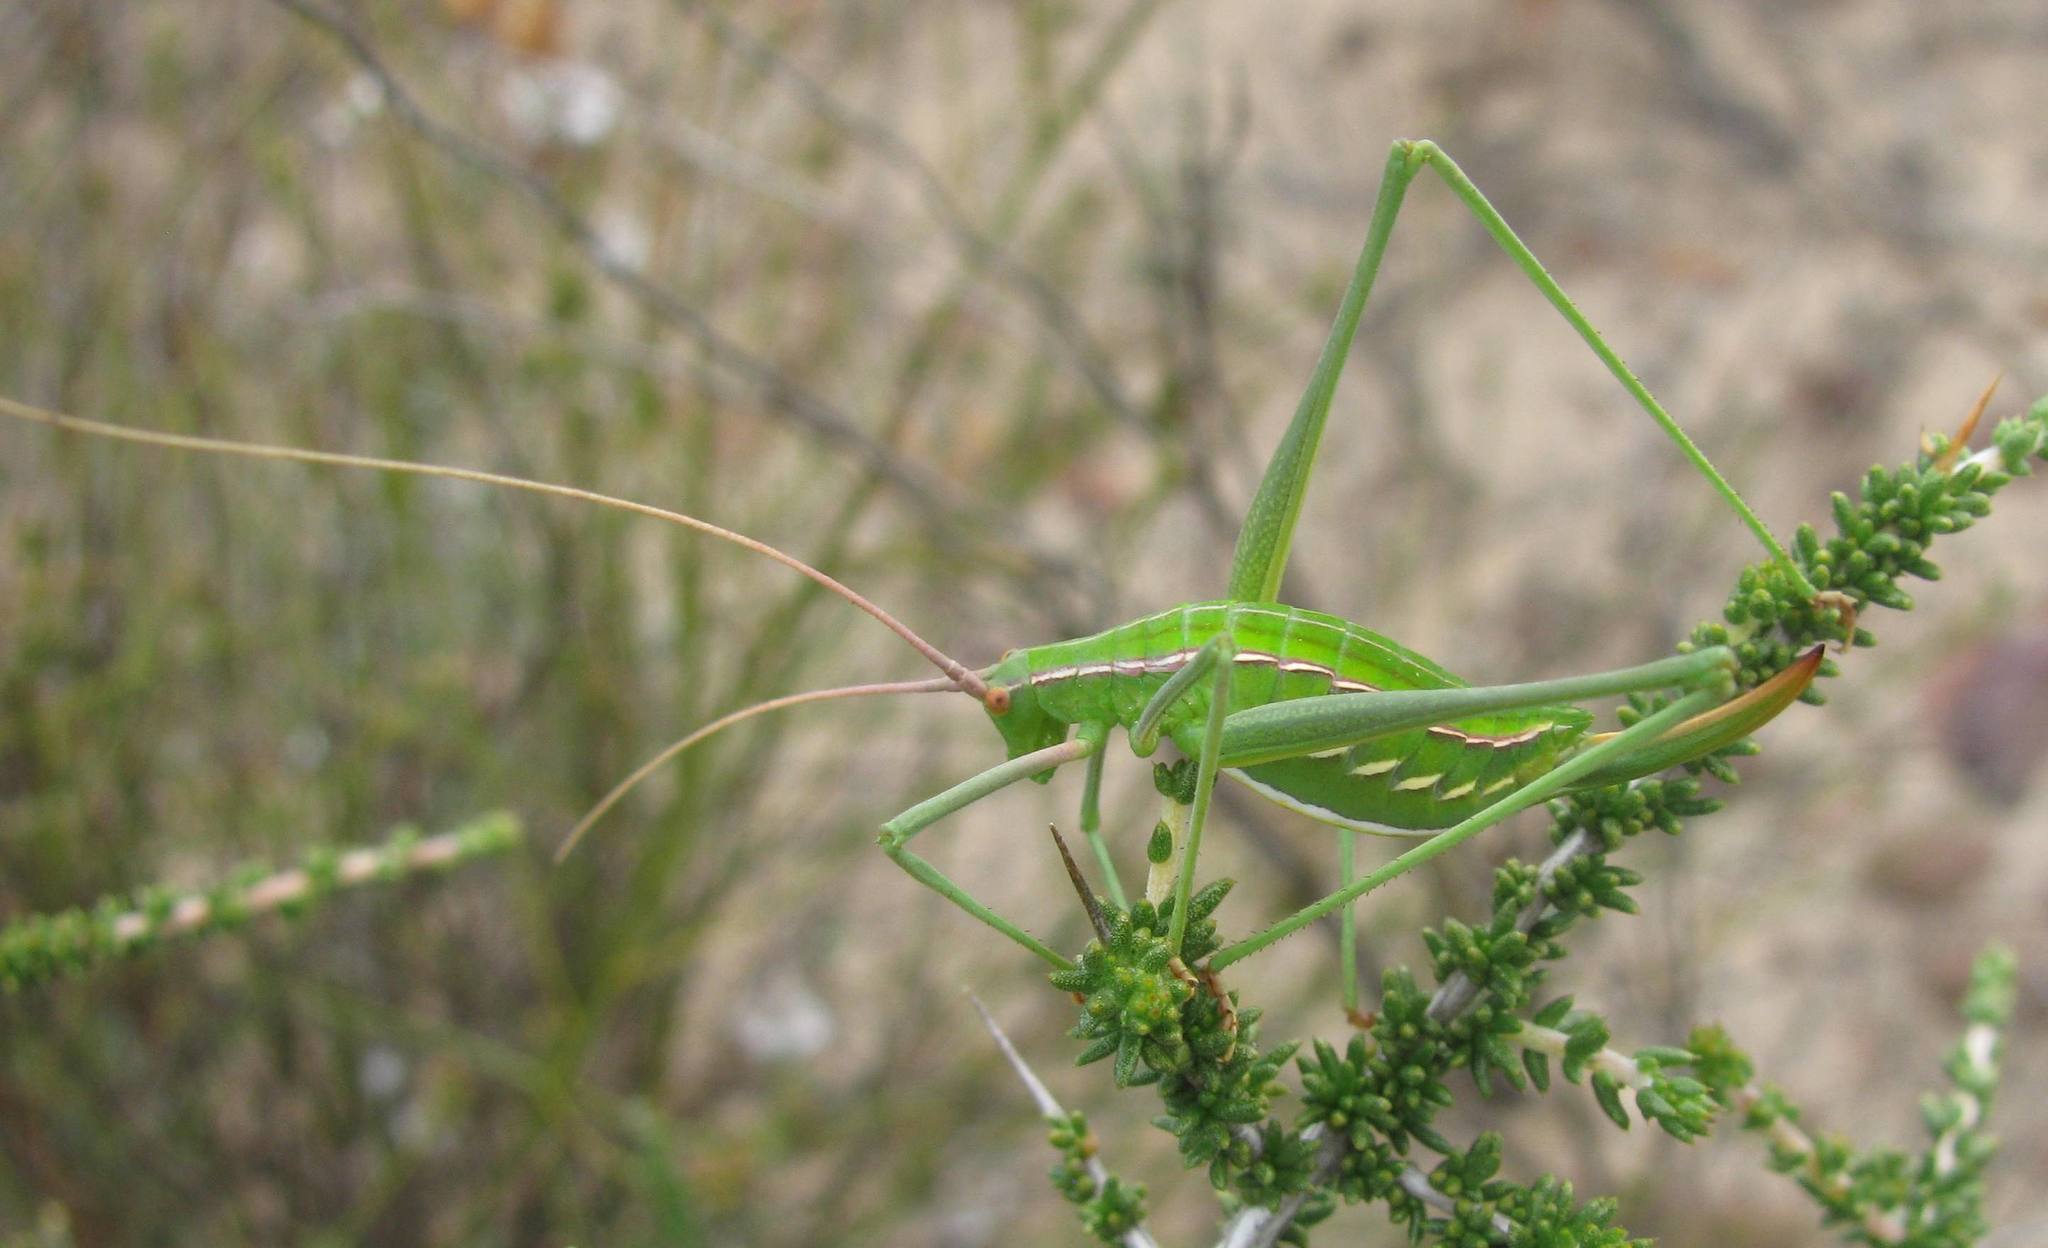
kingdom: Animalia
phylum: Arthropoda
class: Insecta
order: Orthoptera
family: Tettigoniidae
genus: Brinckiella
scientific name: Brinckiella wilsoni
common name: Wilson's winter katydid
